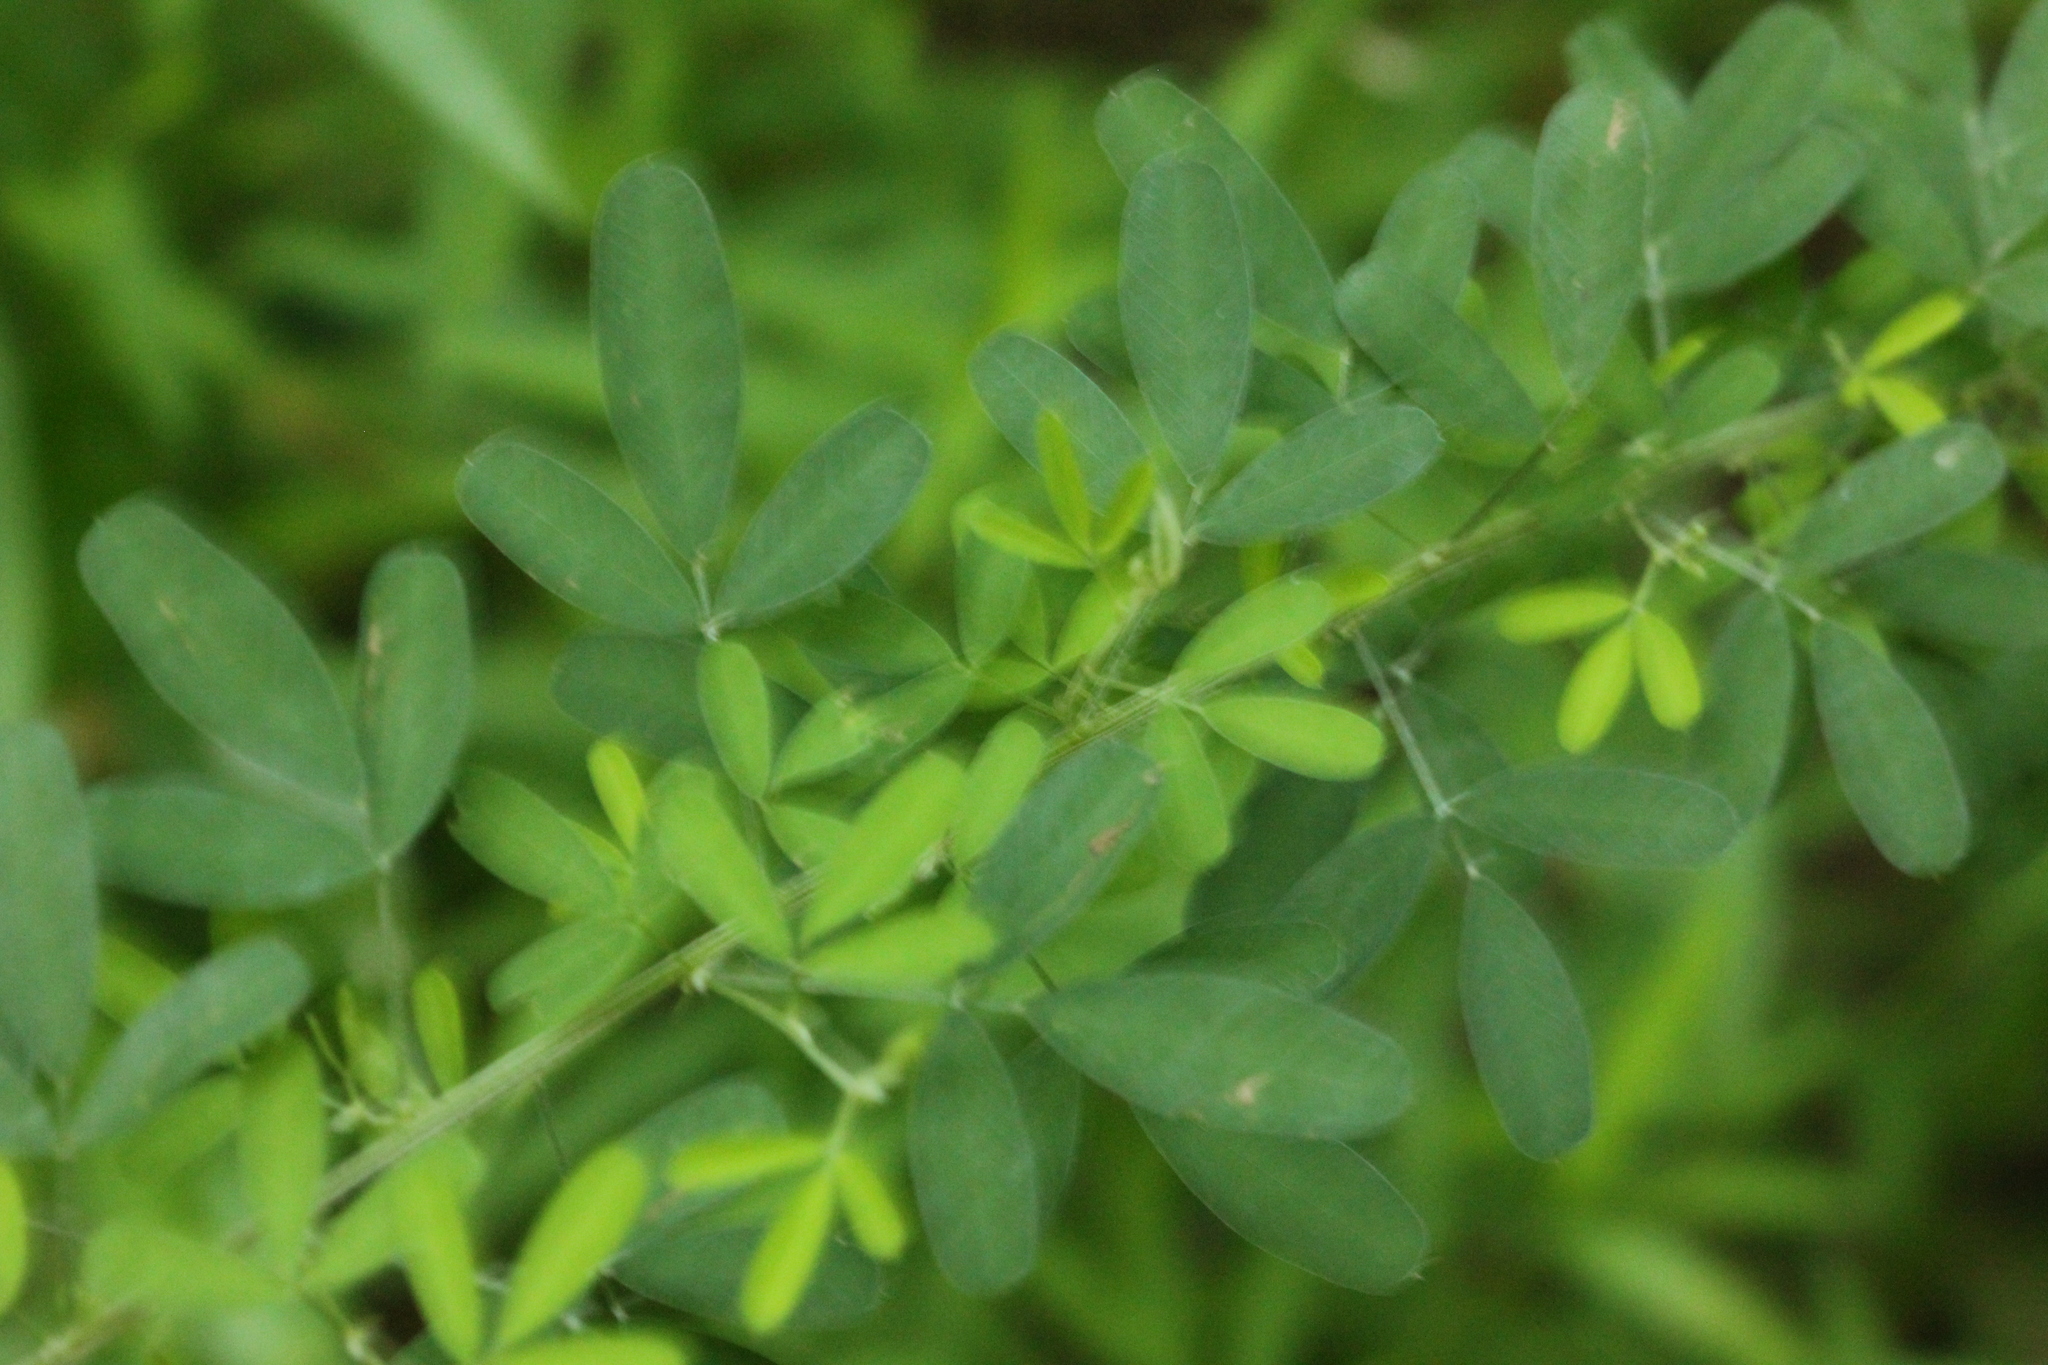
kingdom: Plantae
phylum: Tracheophyta
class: Magnoliopsida
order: Fabales
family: Fabaceae
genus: Lespedeza
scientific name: Lespedeza cuneata
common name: Chinese bush-clover
